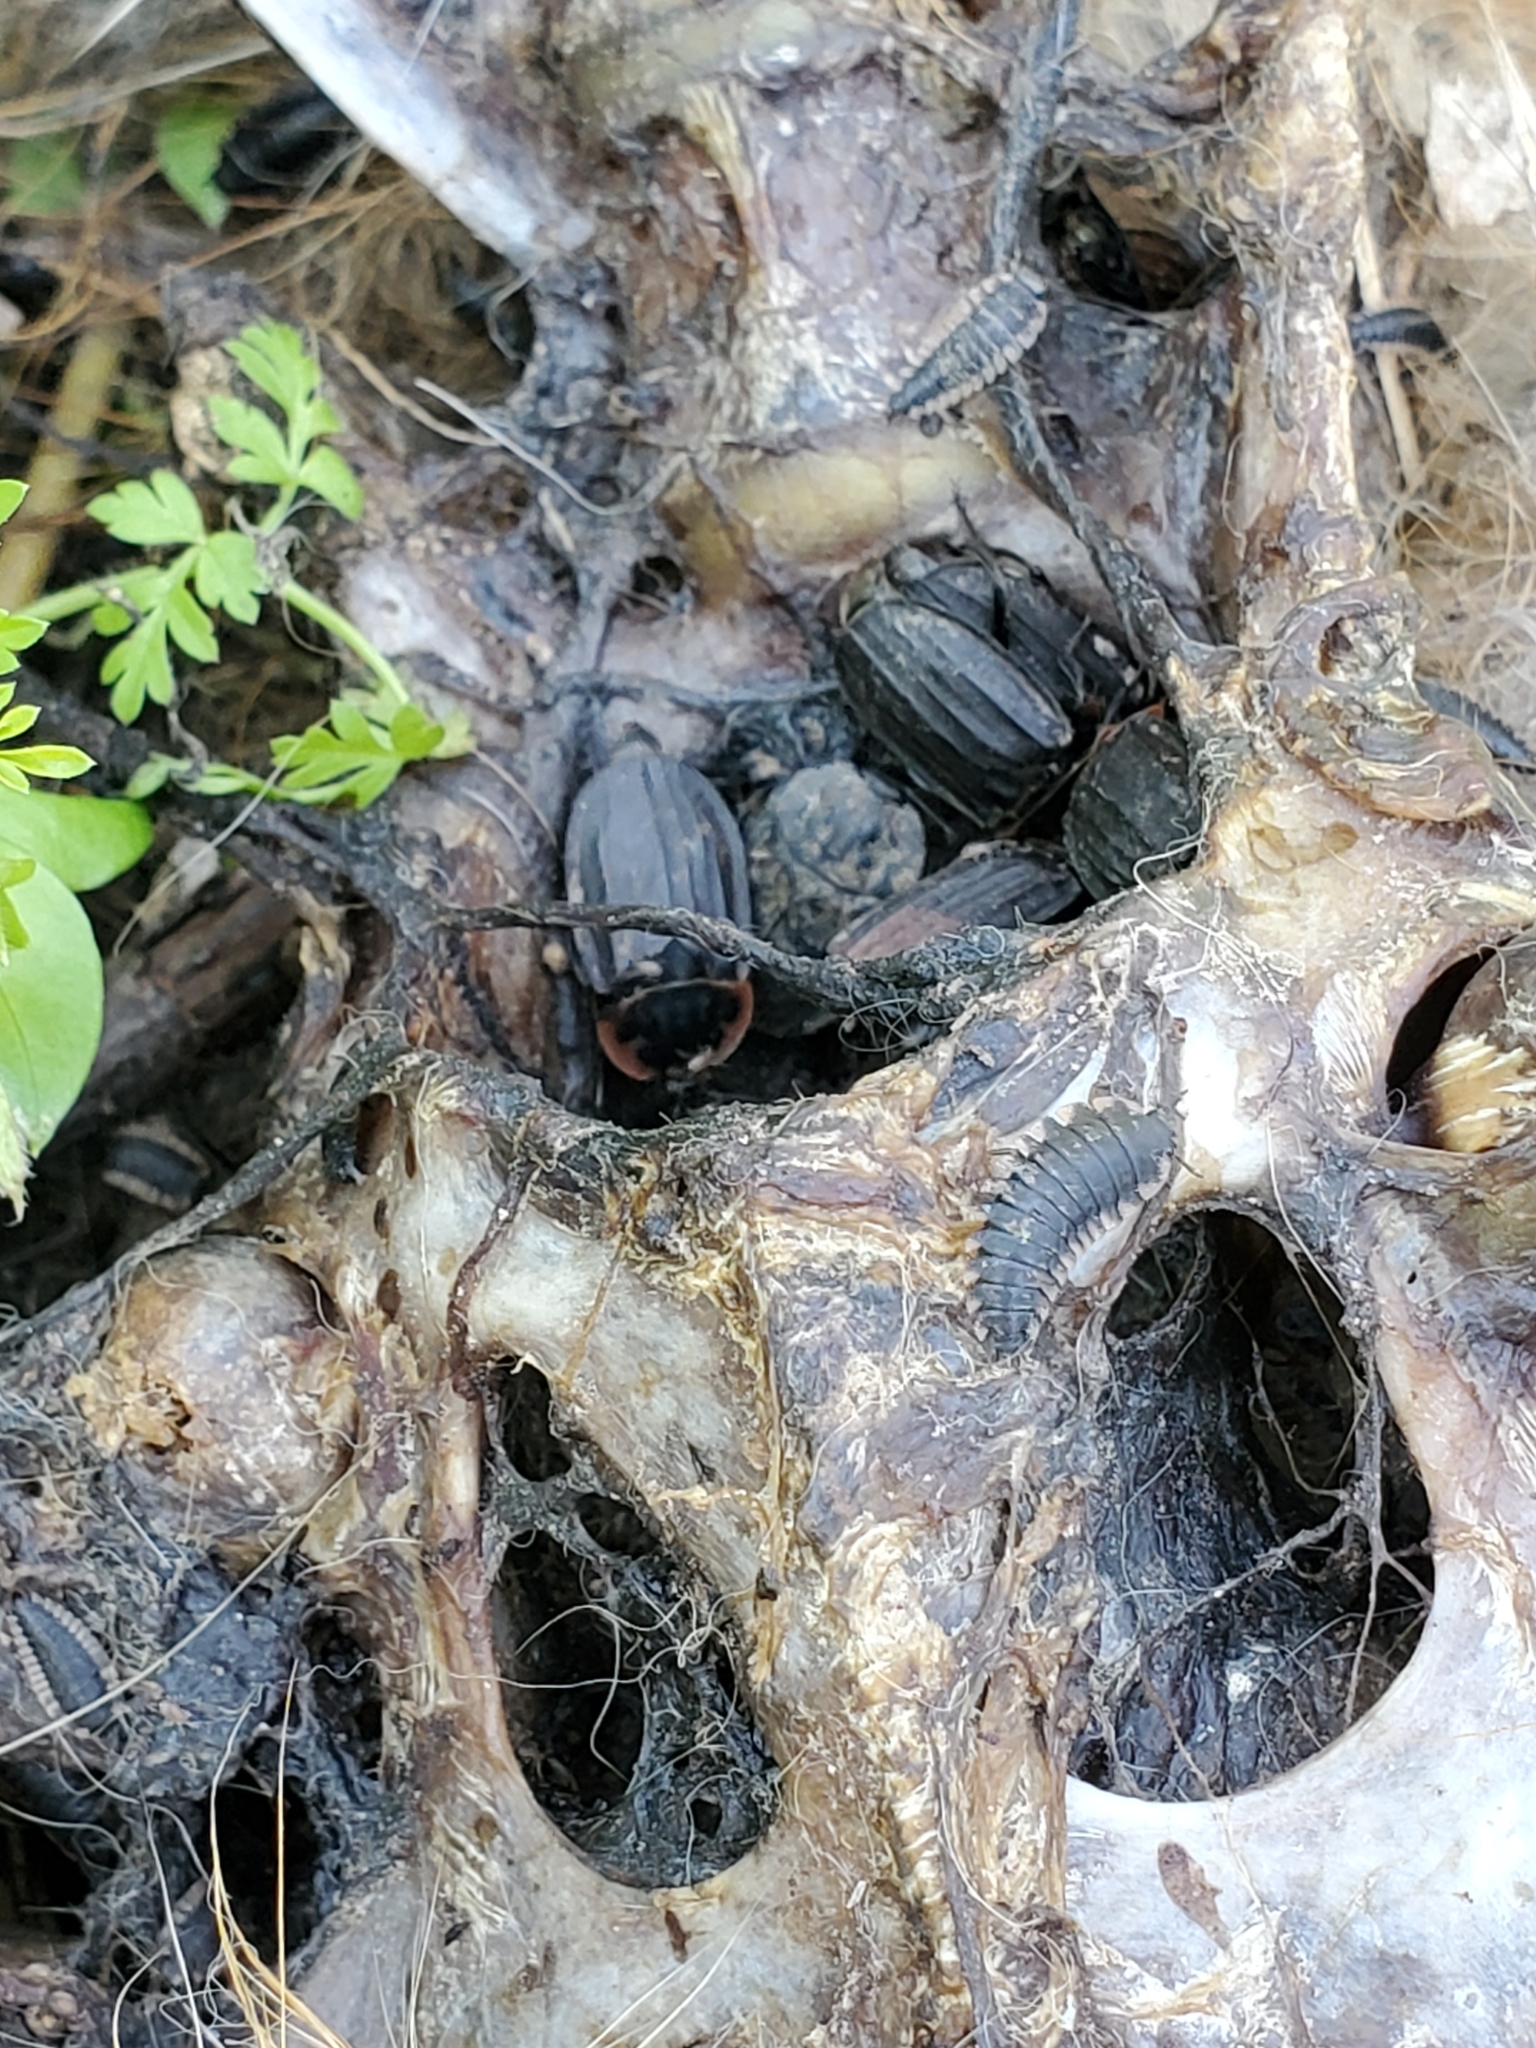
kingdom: Animalia
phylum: Arthropoda
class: Insecta
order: Coleoptera
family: Staphylinidae
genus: Oiceoptoma
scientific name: Oiceoptoma noveboracense
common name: Margined carrion beetle
